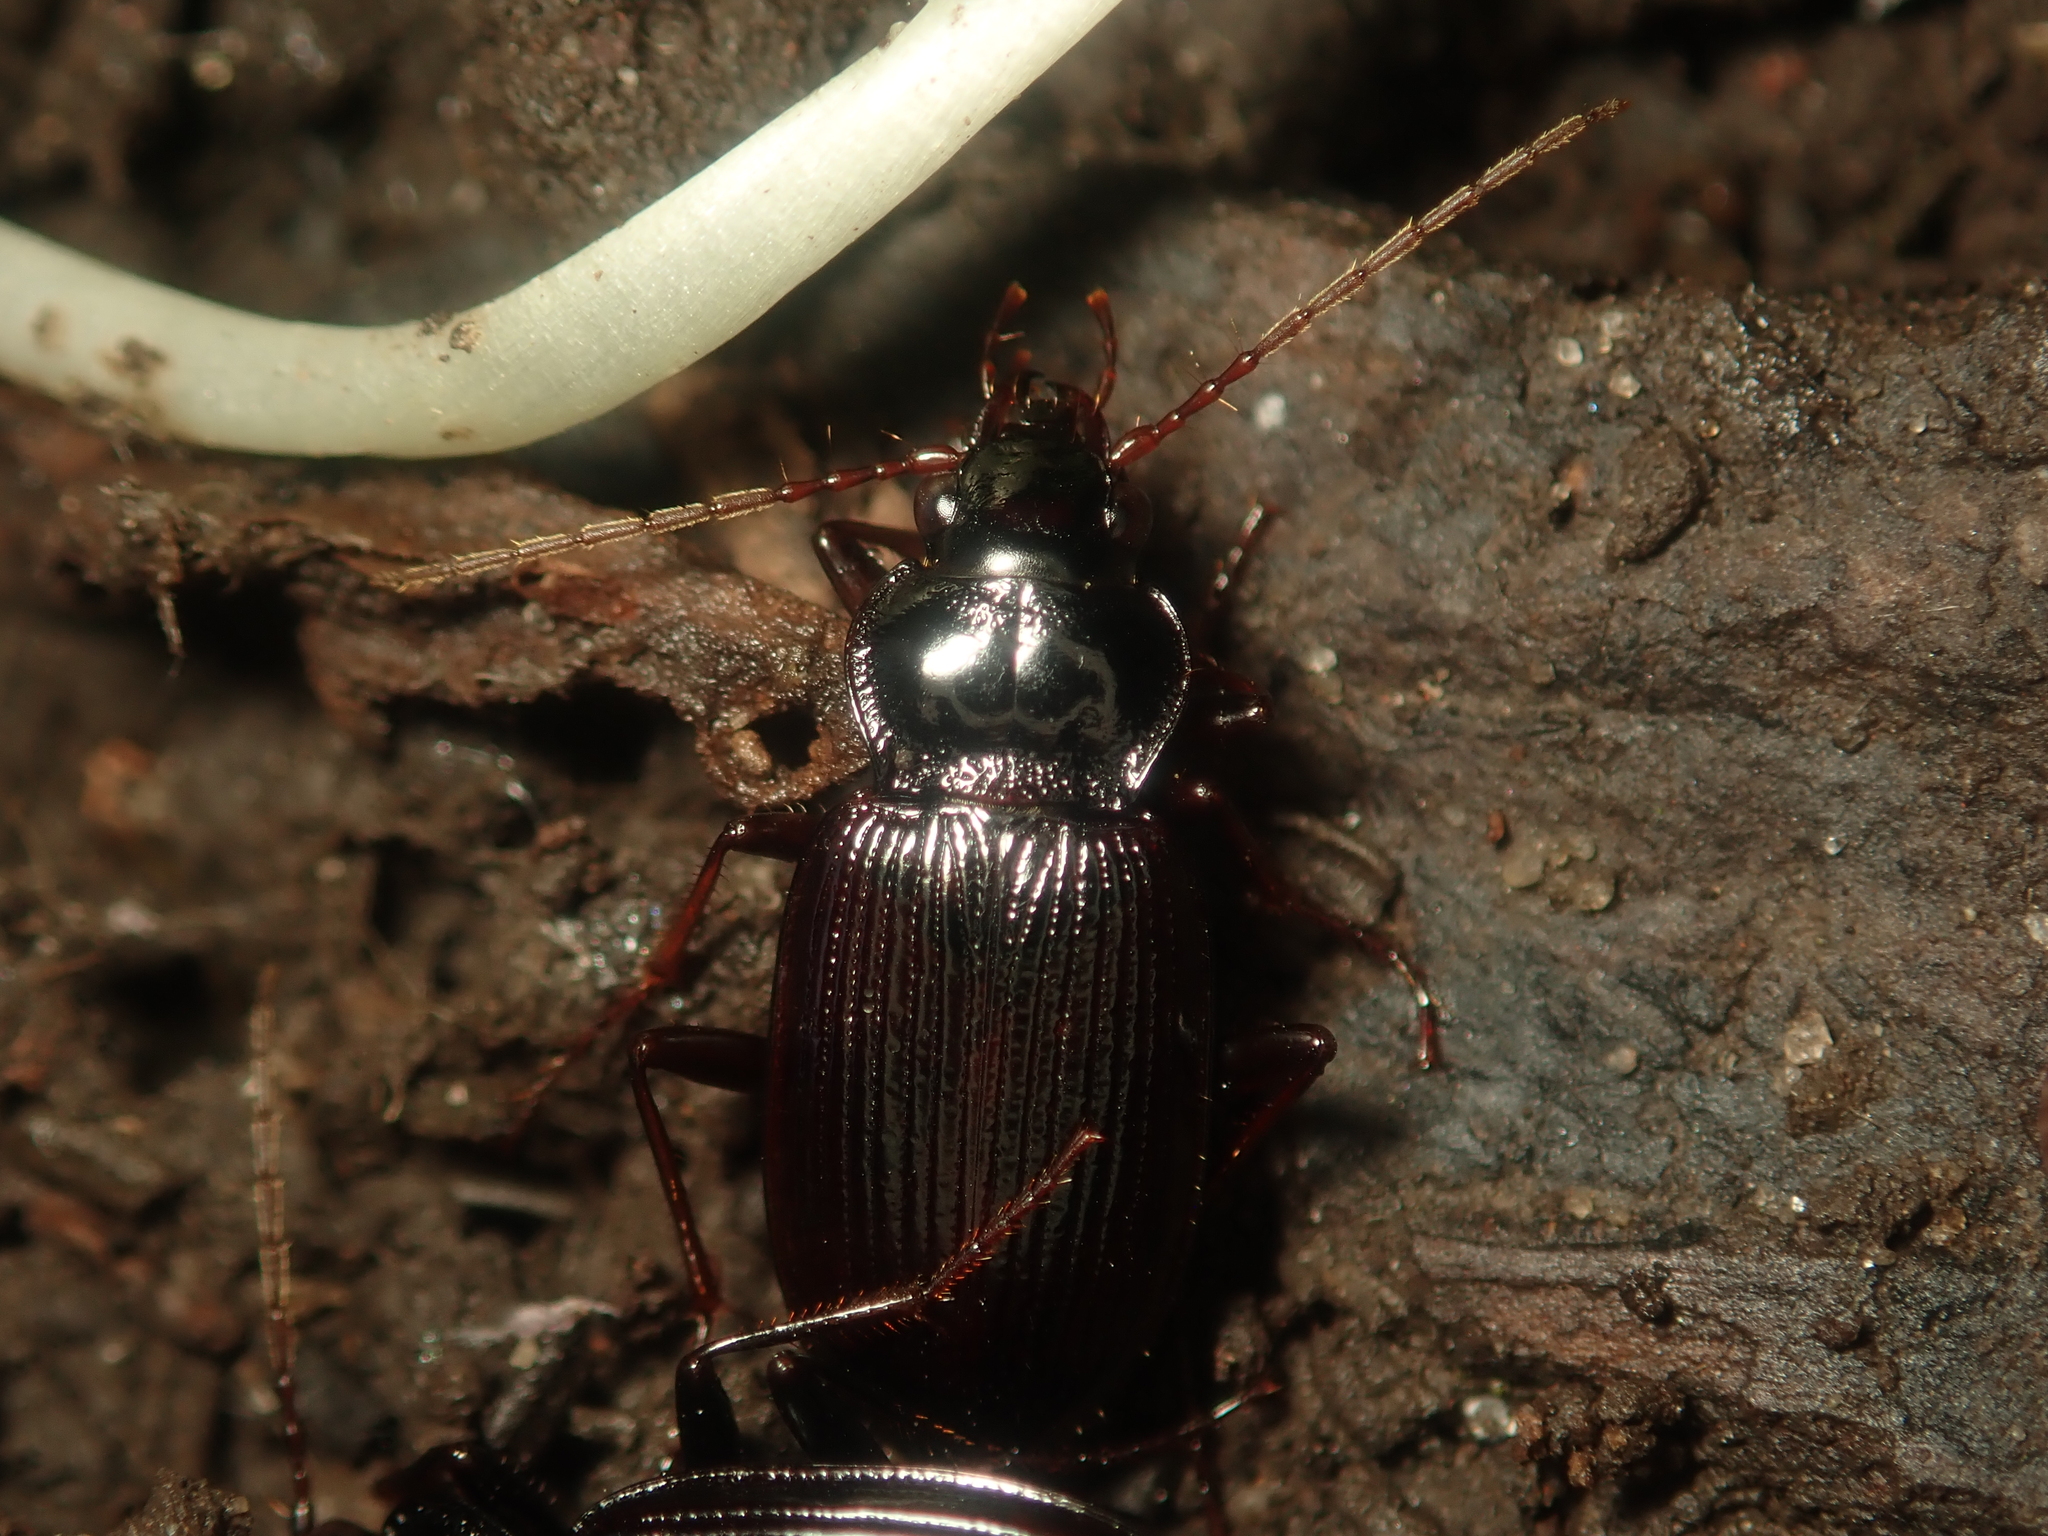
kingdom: Animalia
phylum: Arthropoda
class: Insecta
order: Coleoptera
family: Carabidae
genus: Nebria
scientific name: Nebria brevicollis
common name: Short-necked gazelle beetle
